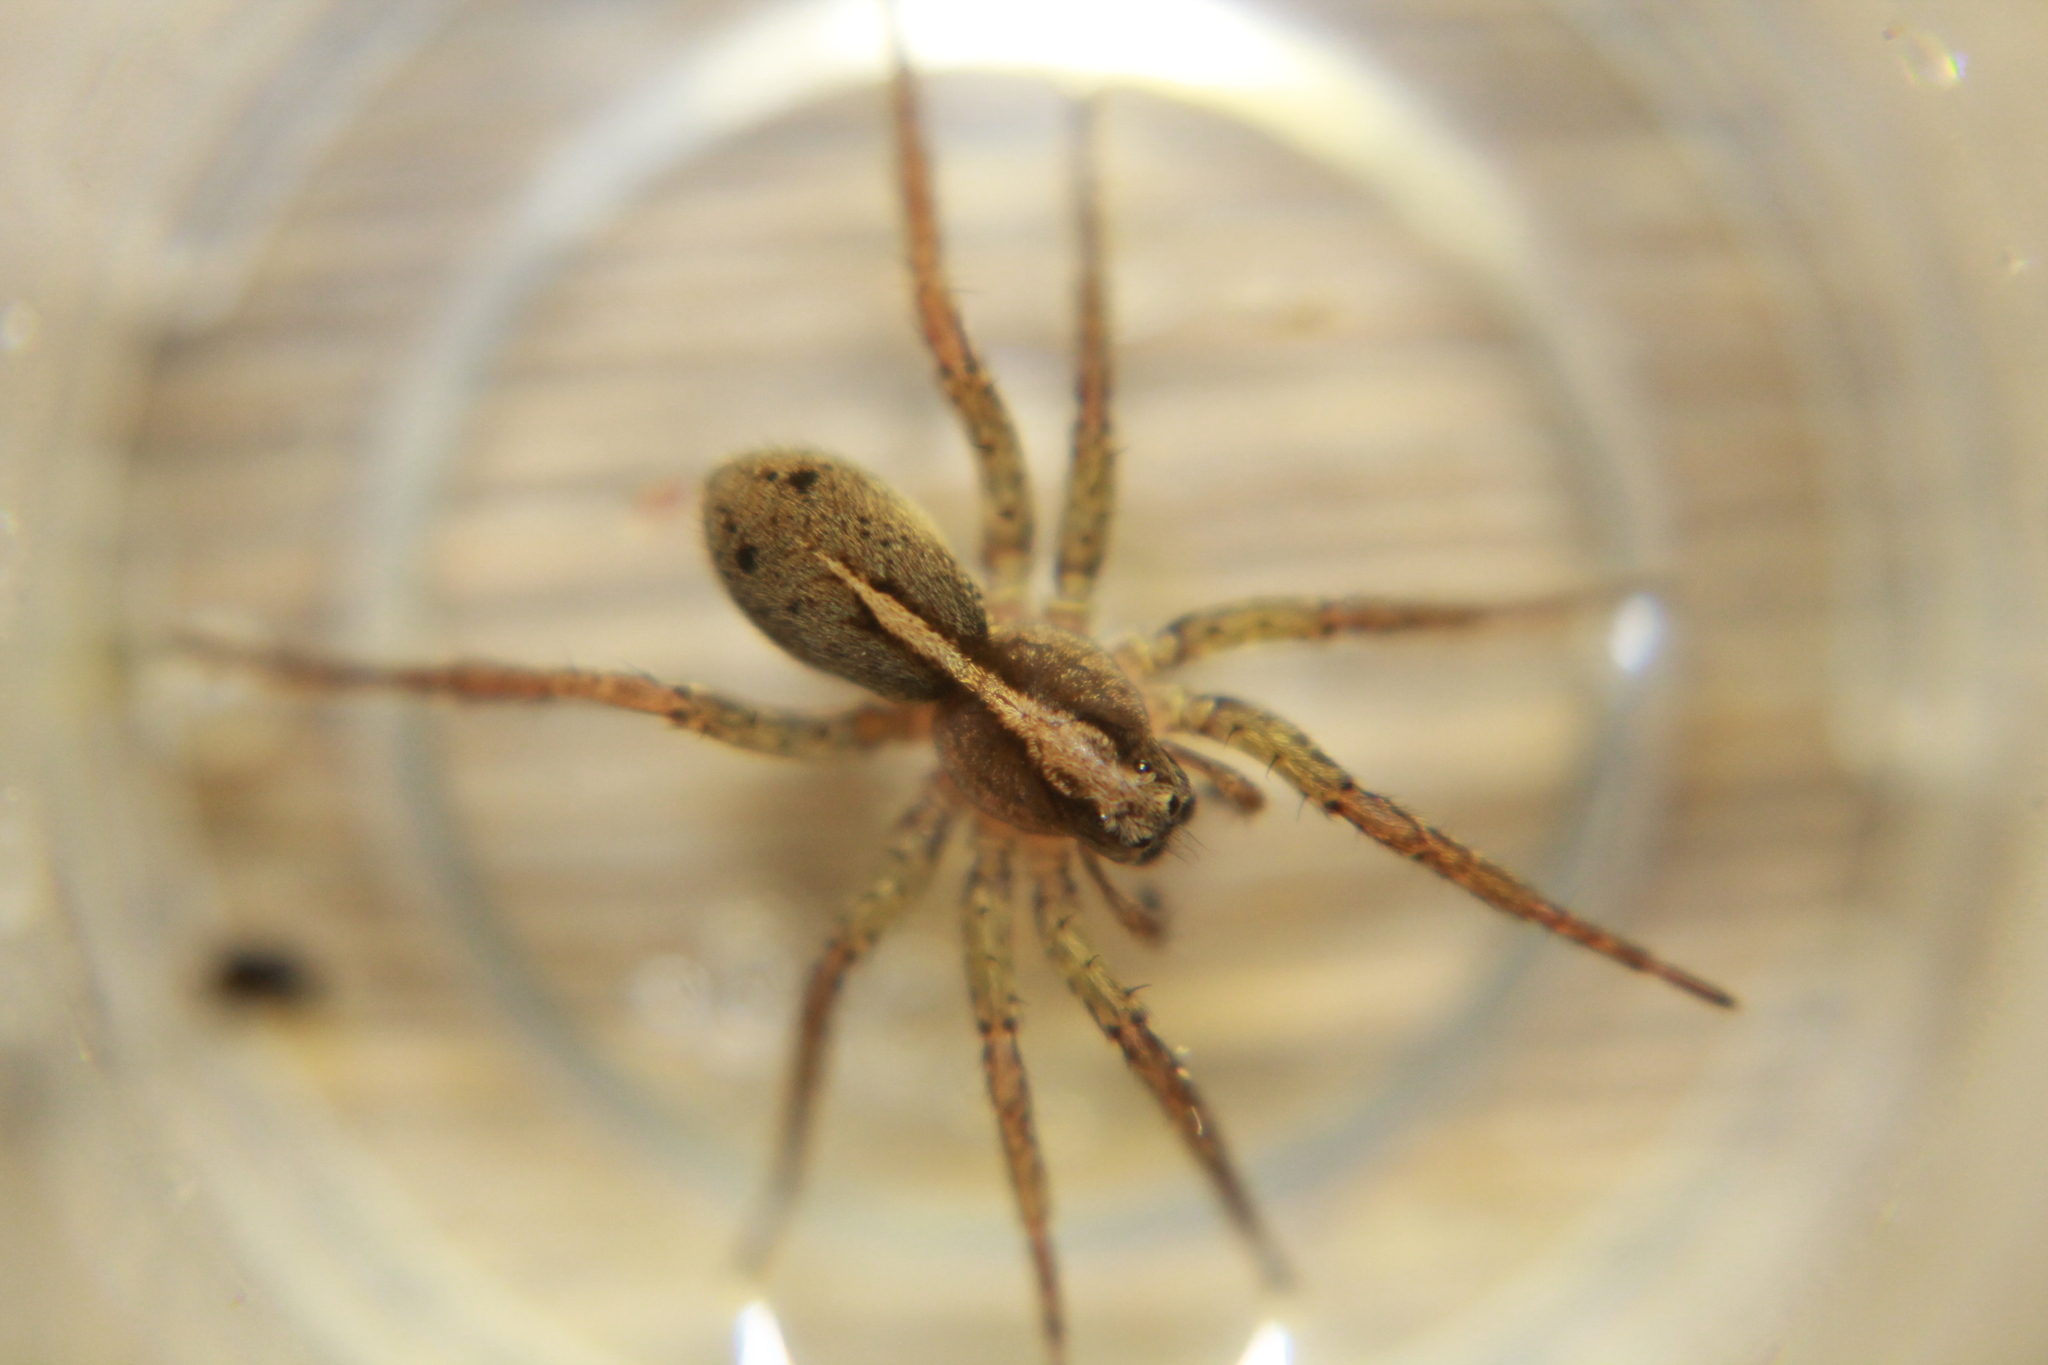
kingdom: Animalia
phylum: Arthropoda
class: Arachnida
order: Araneae
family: Lycosidae
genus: Anoteropsis
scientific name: Anoteropsis hilaris
